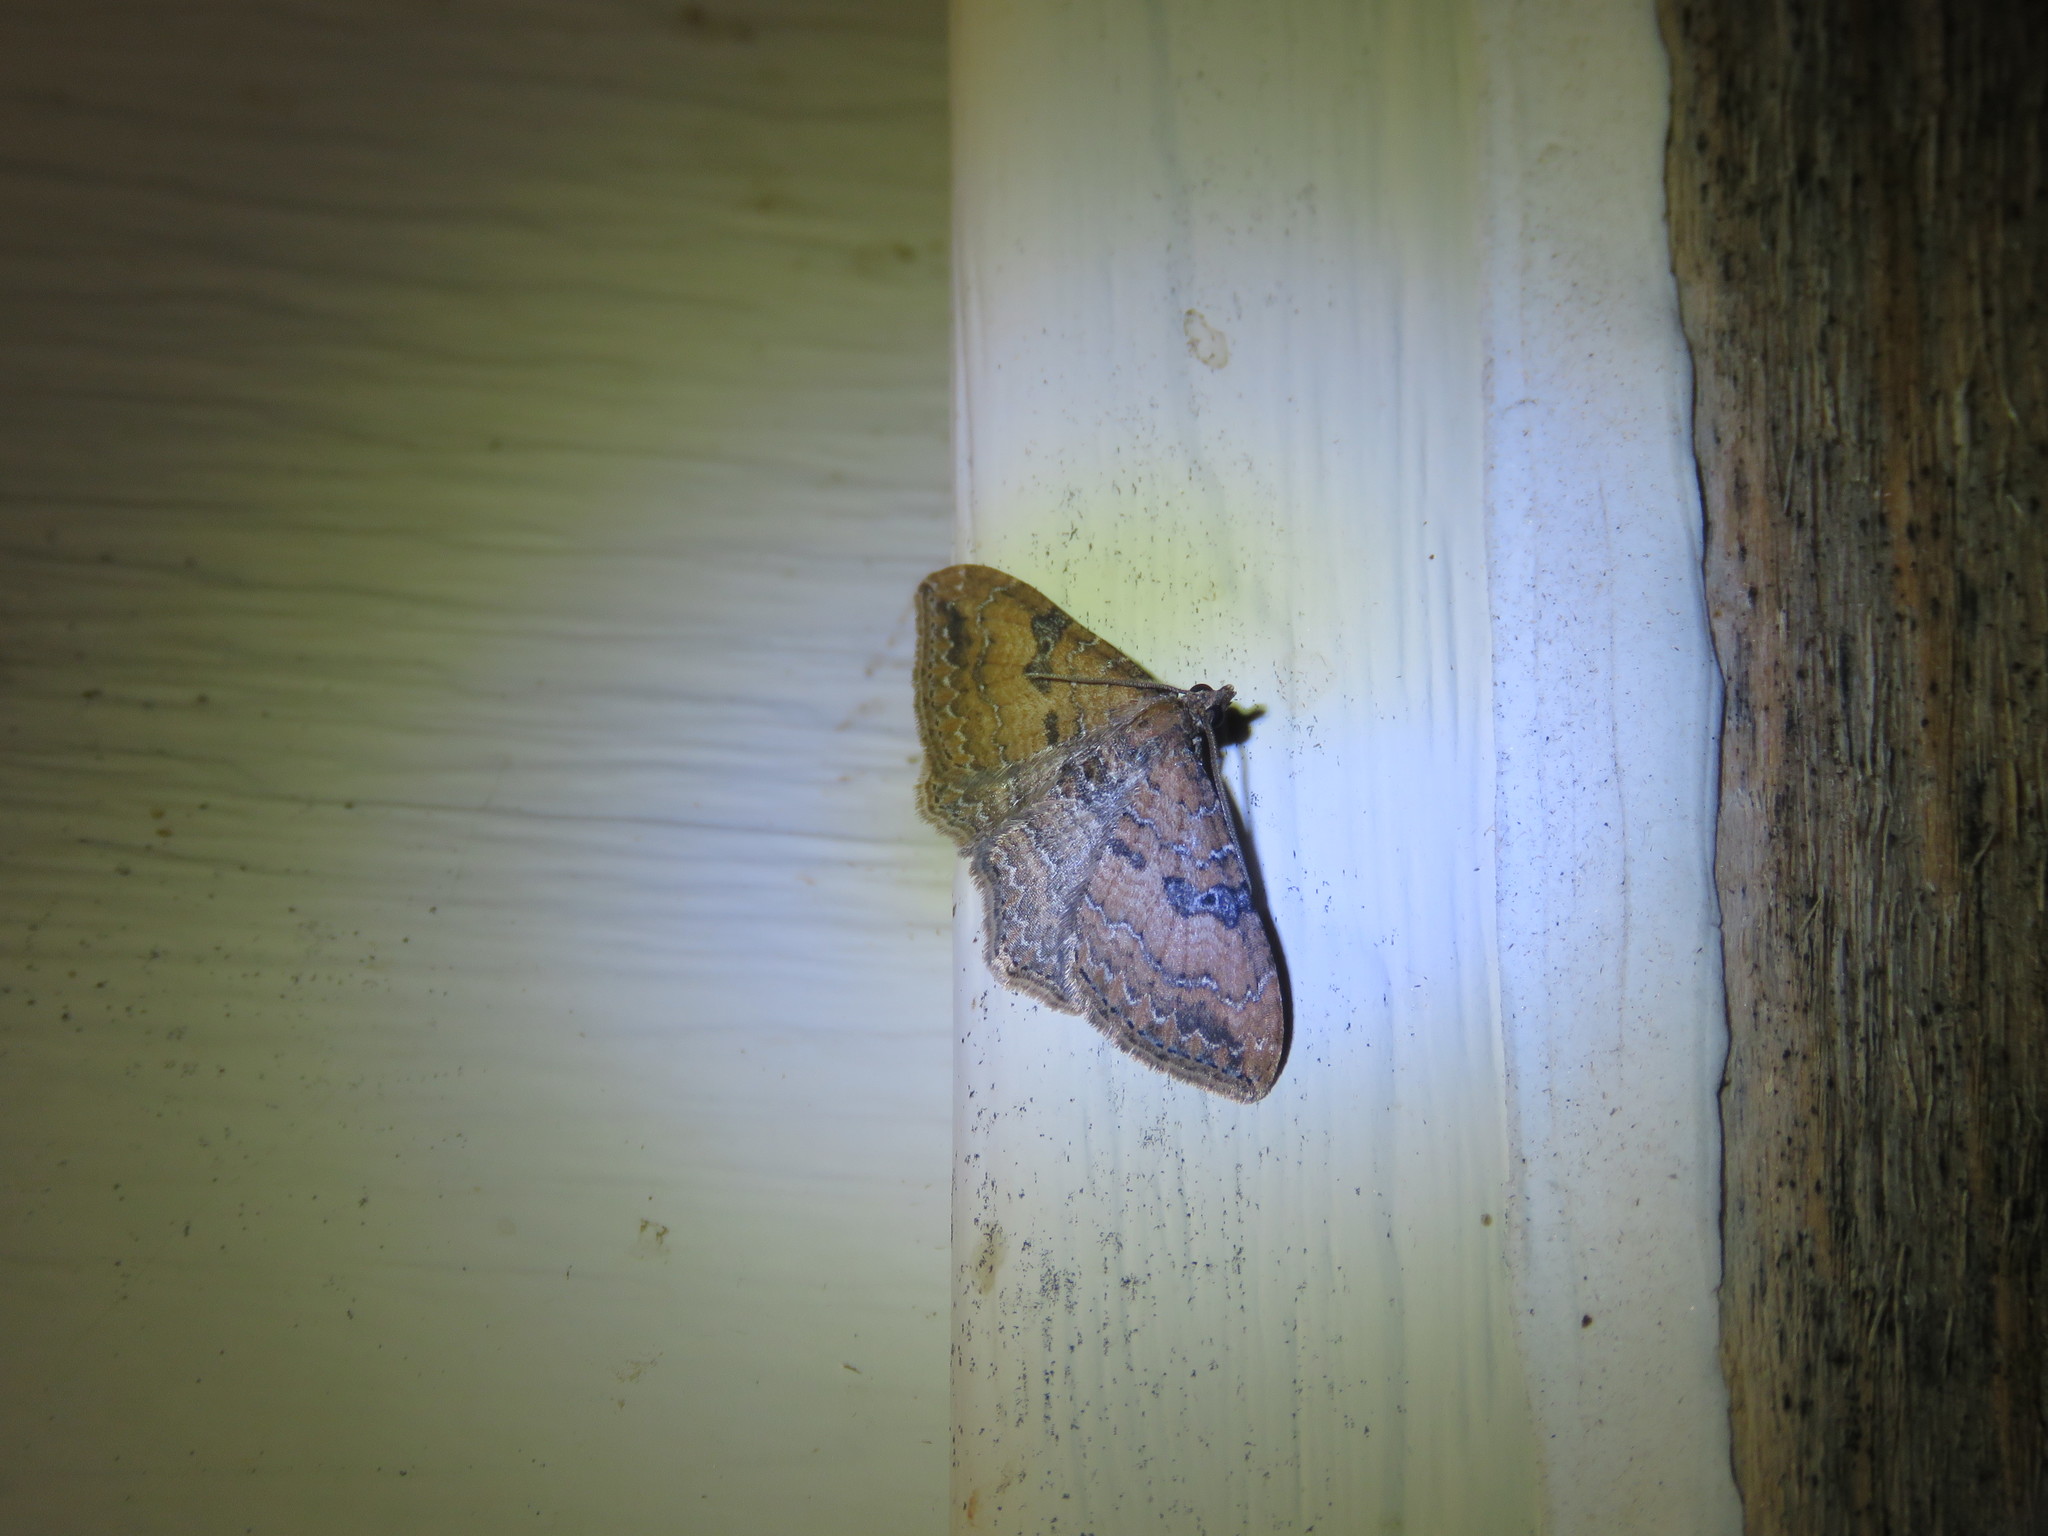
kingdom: Animalia
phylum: Arthropoda
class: Insecta
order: Lepidoptera
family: Geometridae
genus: Orthonama
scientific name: Orthonama obstipata
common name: The gem
